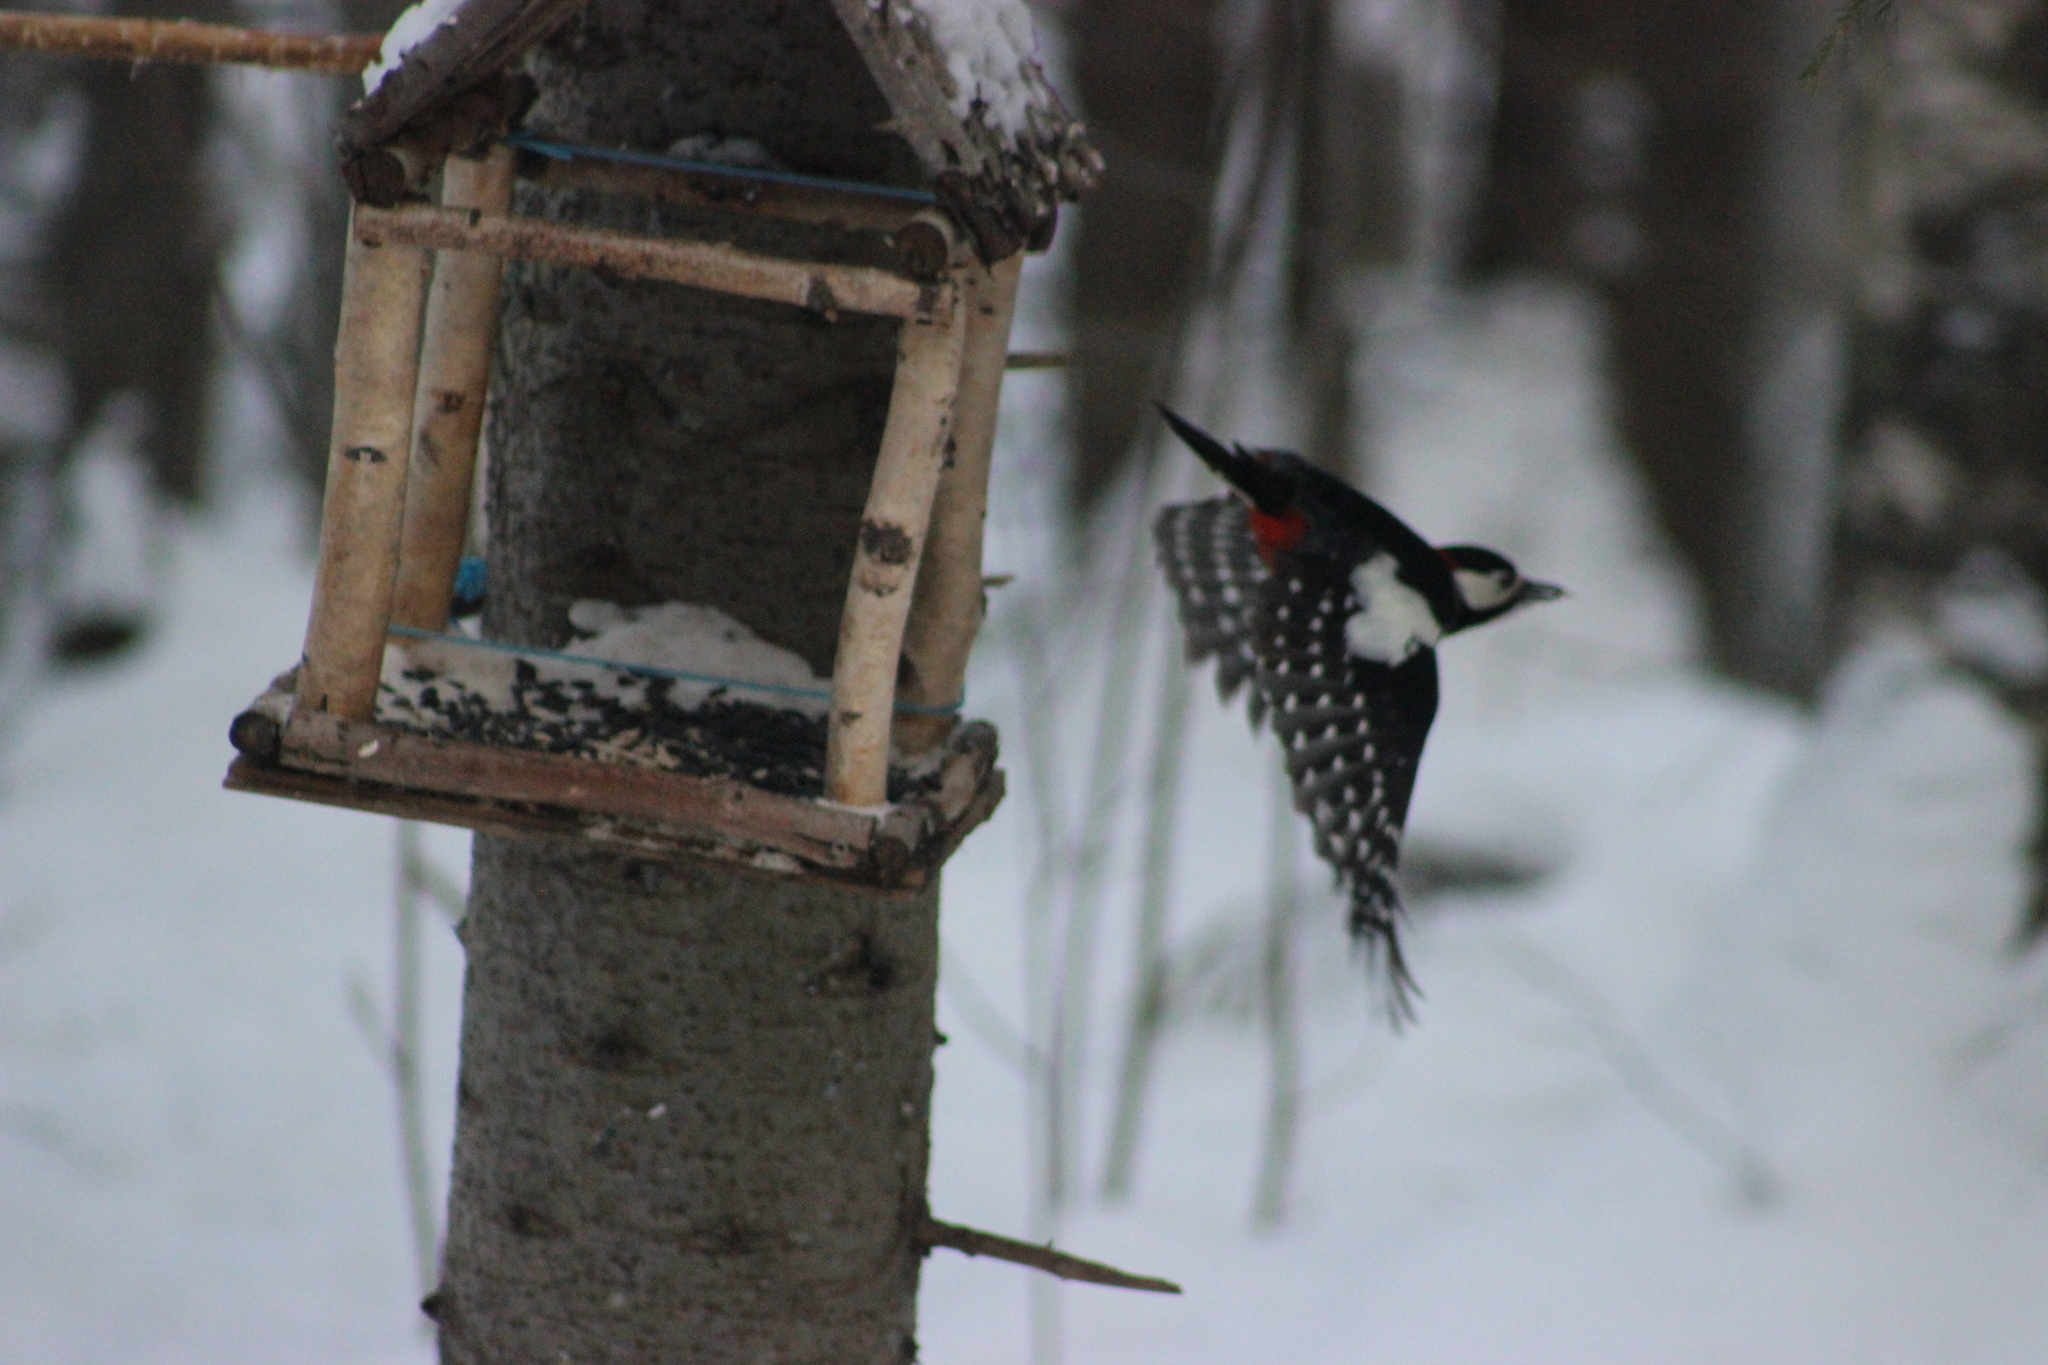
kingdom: Animalia
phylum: Chordata
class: Aves
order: Piciformes
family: Picidae
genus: Dendrocopos
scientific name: Dendrocopos major
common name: Great spotted woodpecker
